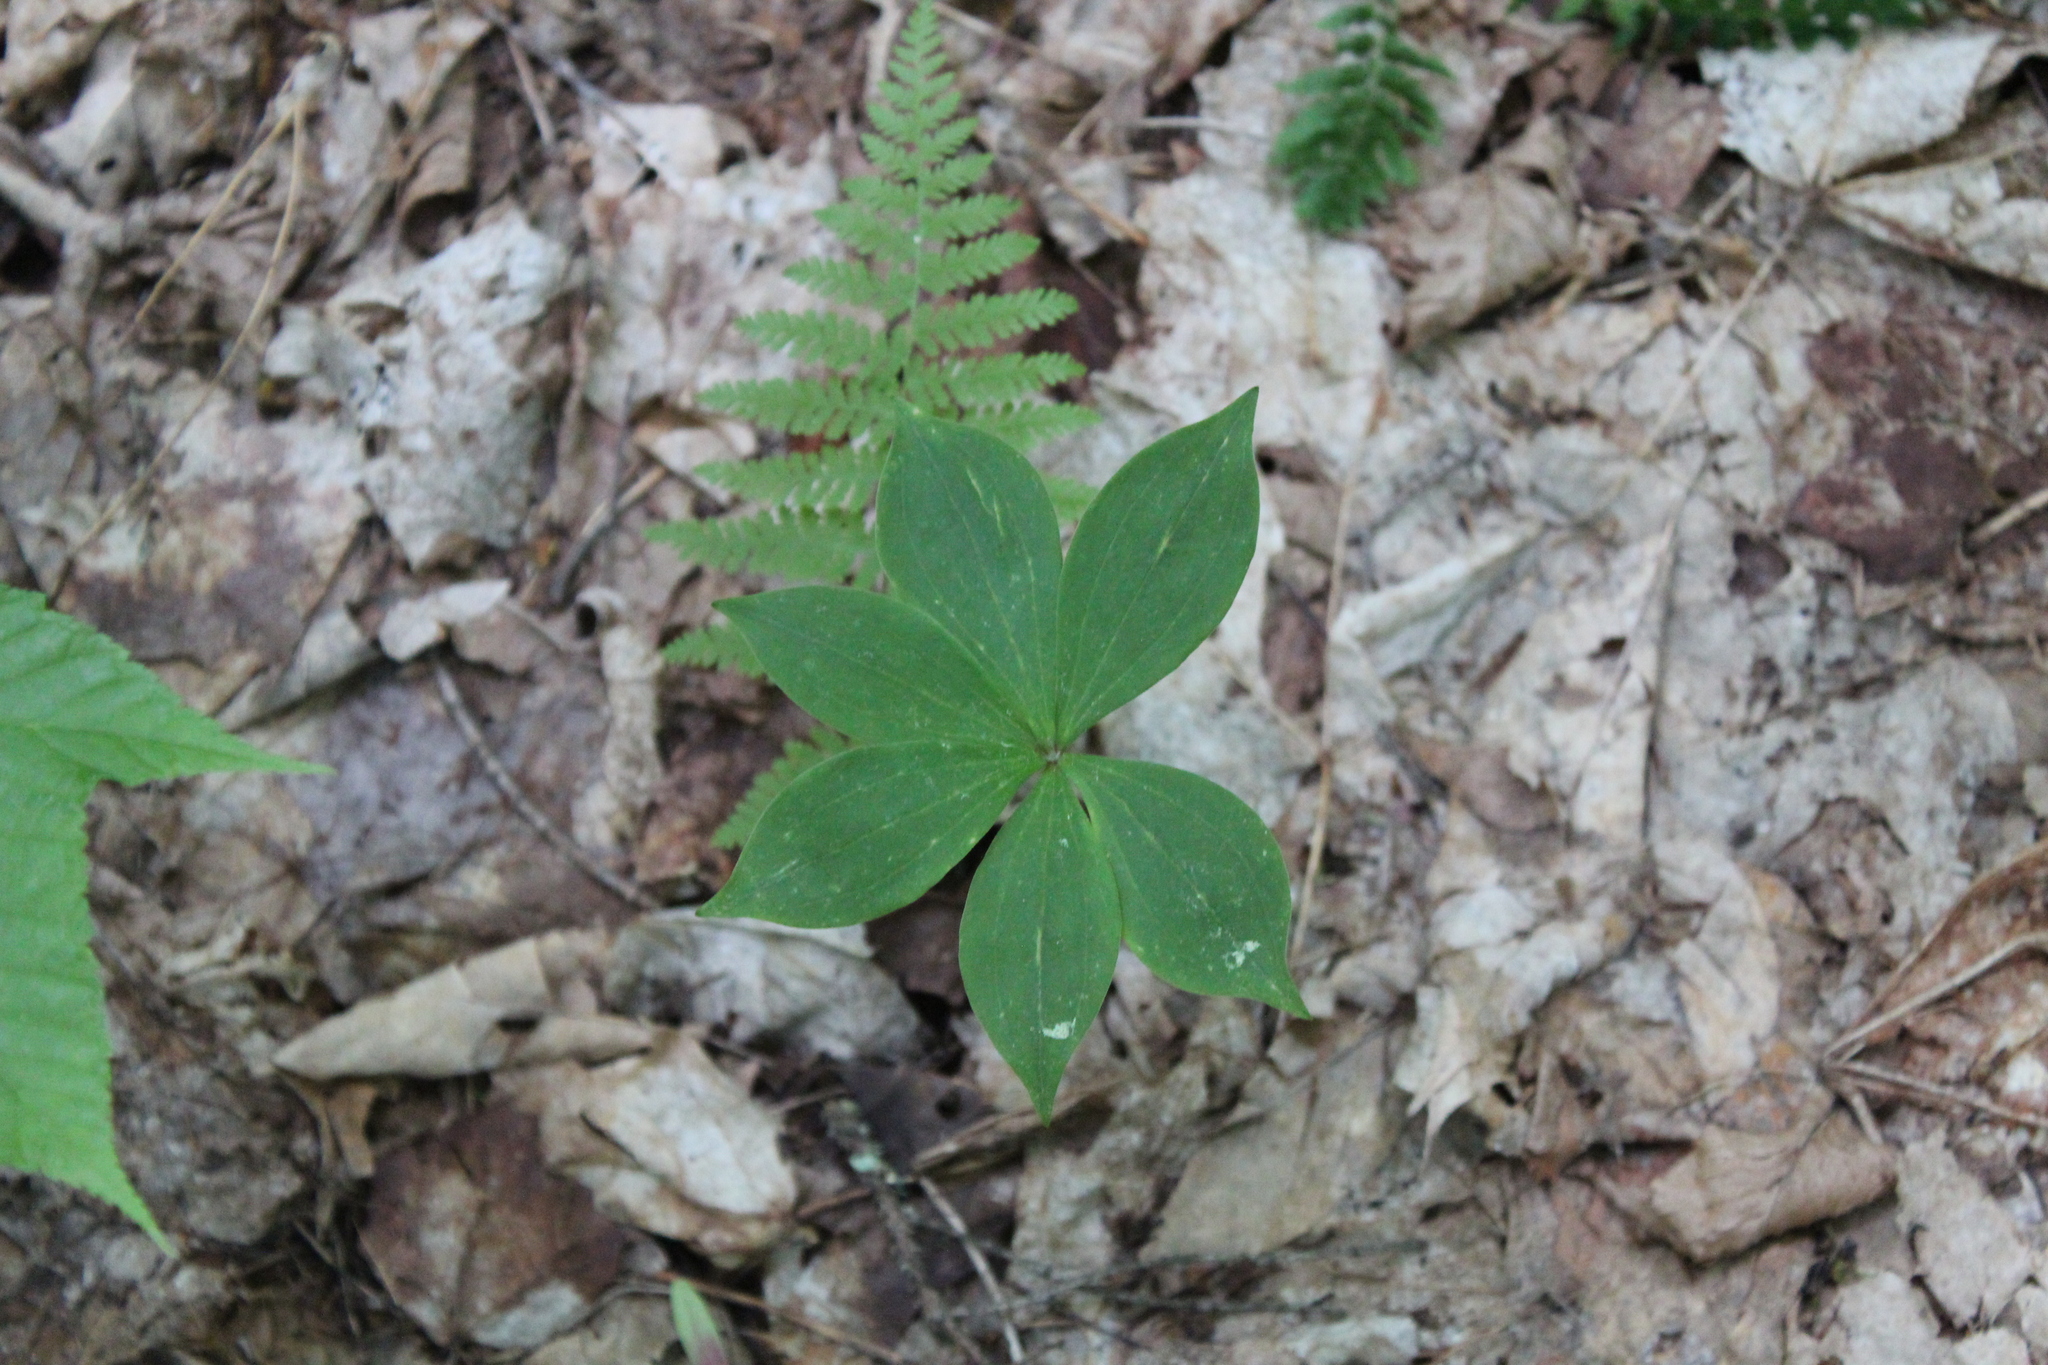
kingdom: Plantae
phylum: Tracheophyta
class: Liliopsida
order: Liliales
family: Liliaceae
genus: Medeola
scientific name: Medeola virginiana
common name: Indian cucumber-root
